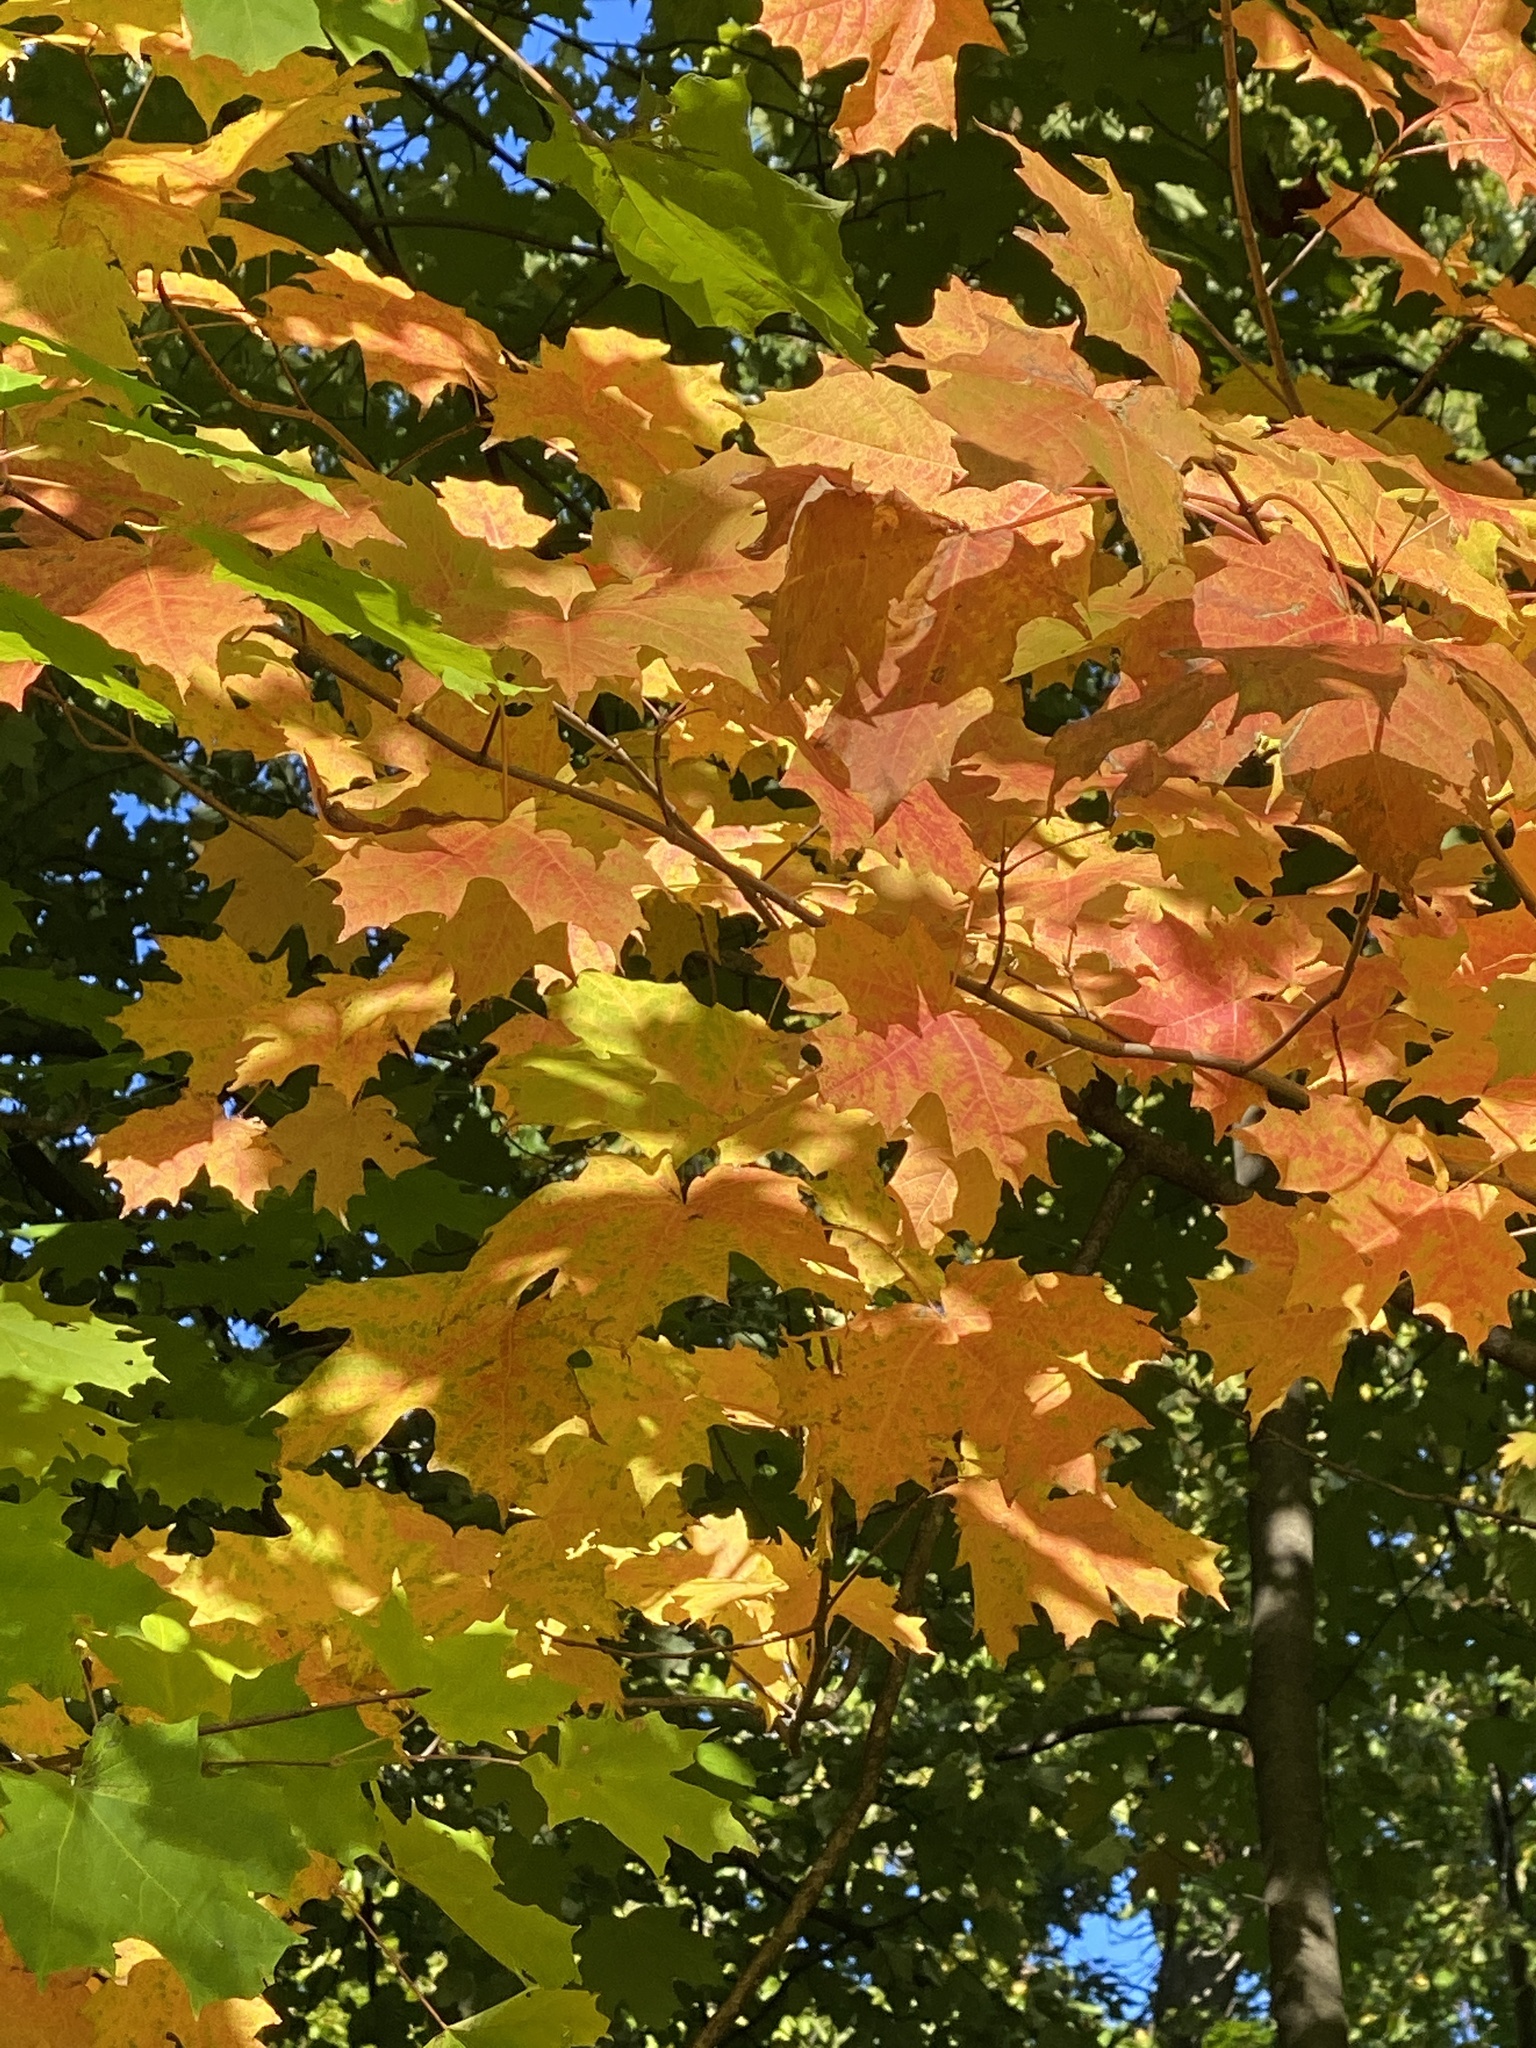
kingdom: Plantae
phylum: Tracheophyta
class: Magnoliopsida
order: Sapindales
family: Sapindaceae
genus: Acer
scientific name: Acer saccharum
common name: Sugar maple
